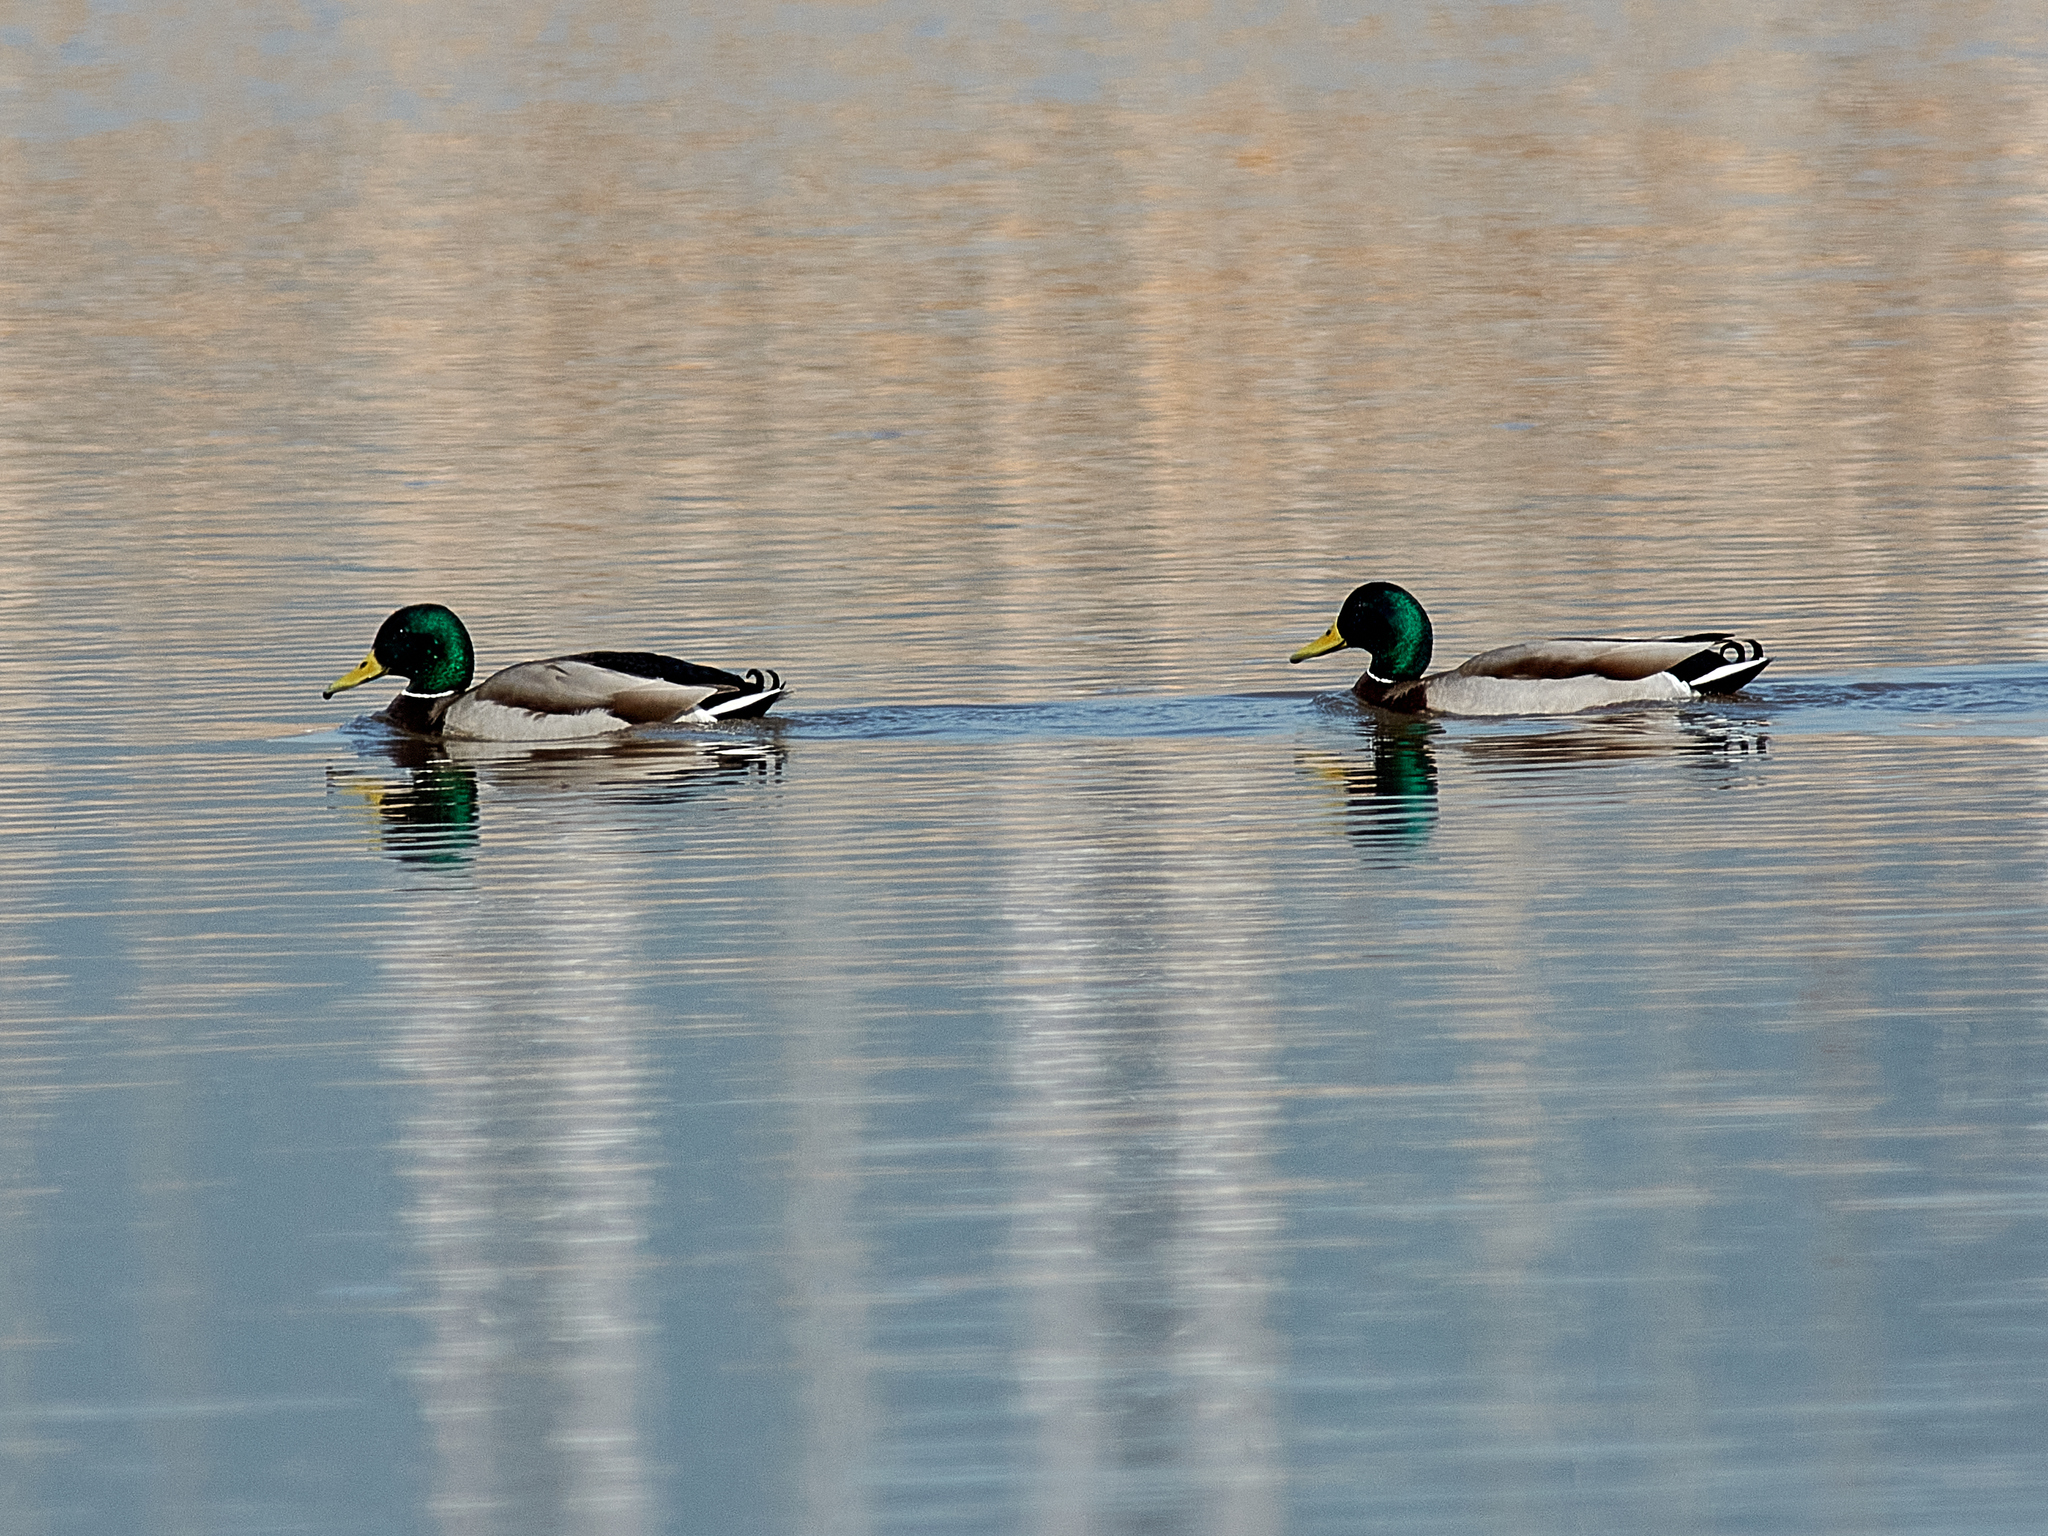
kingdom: Animalia
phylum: Chordata
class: Aves
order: Anseriformes
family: Anatidae
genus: Anas
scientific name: Anas platyrhynchos
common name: Mallard
